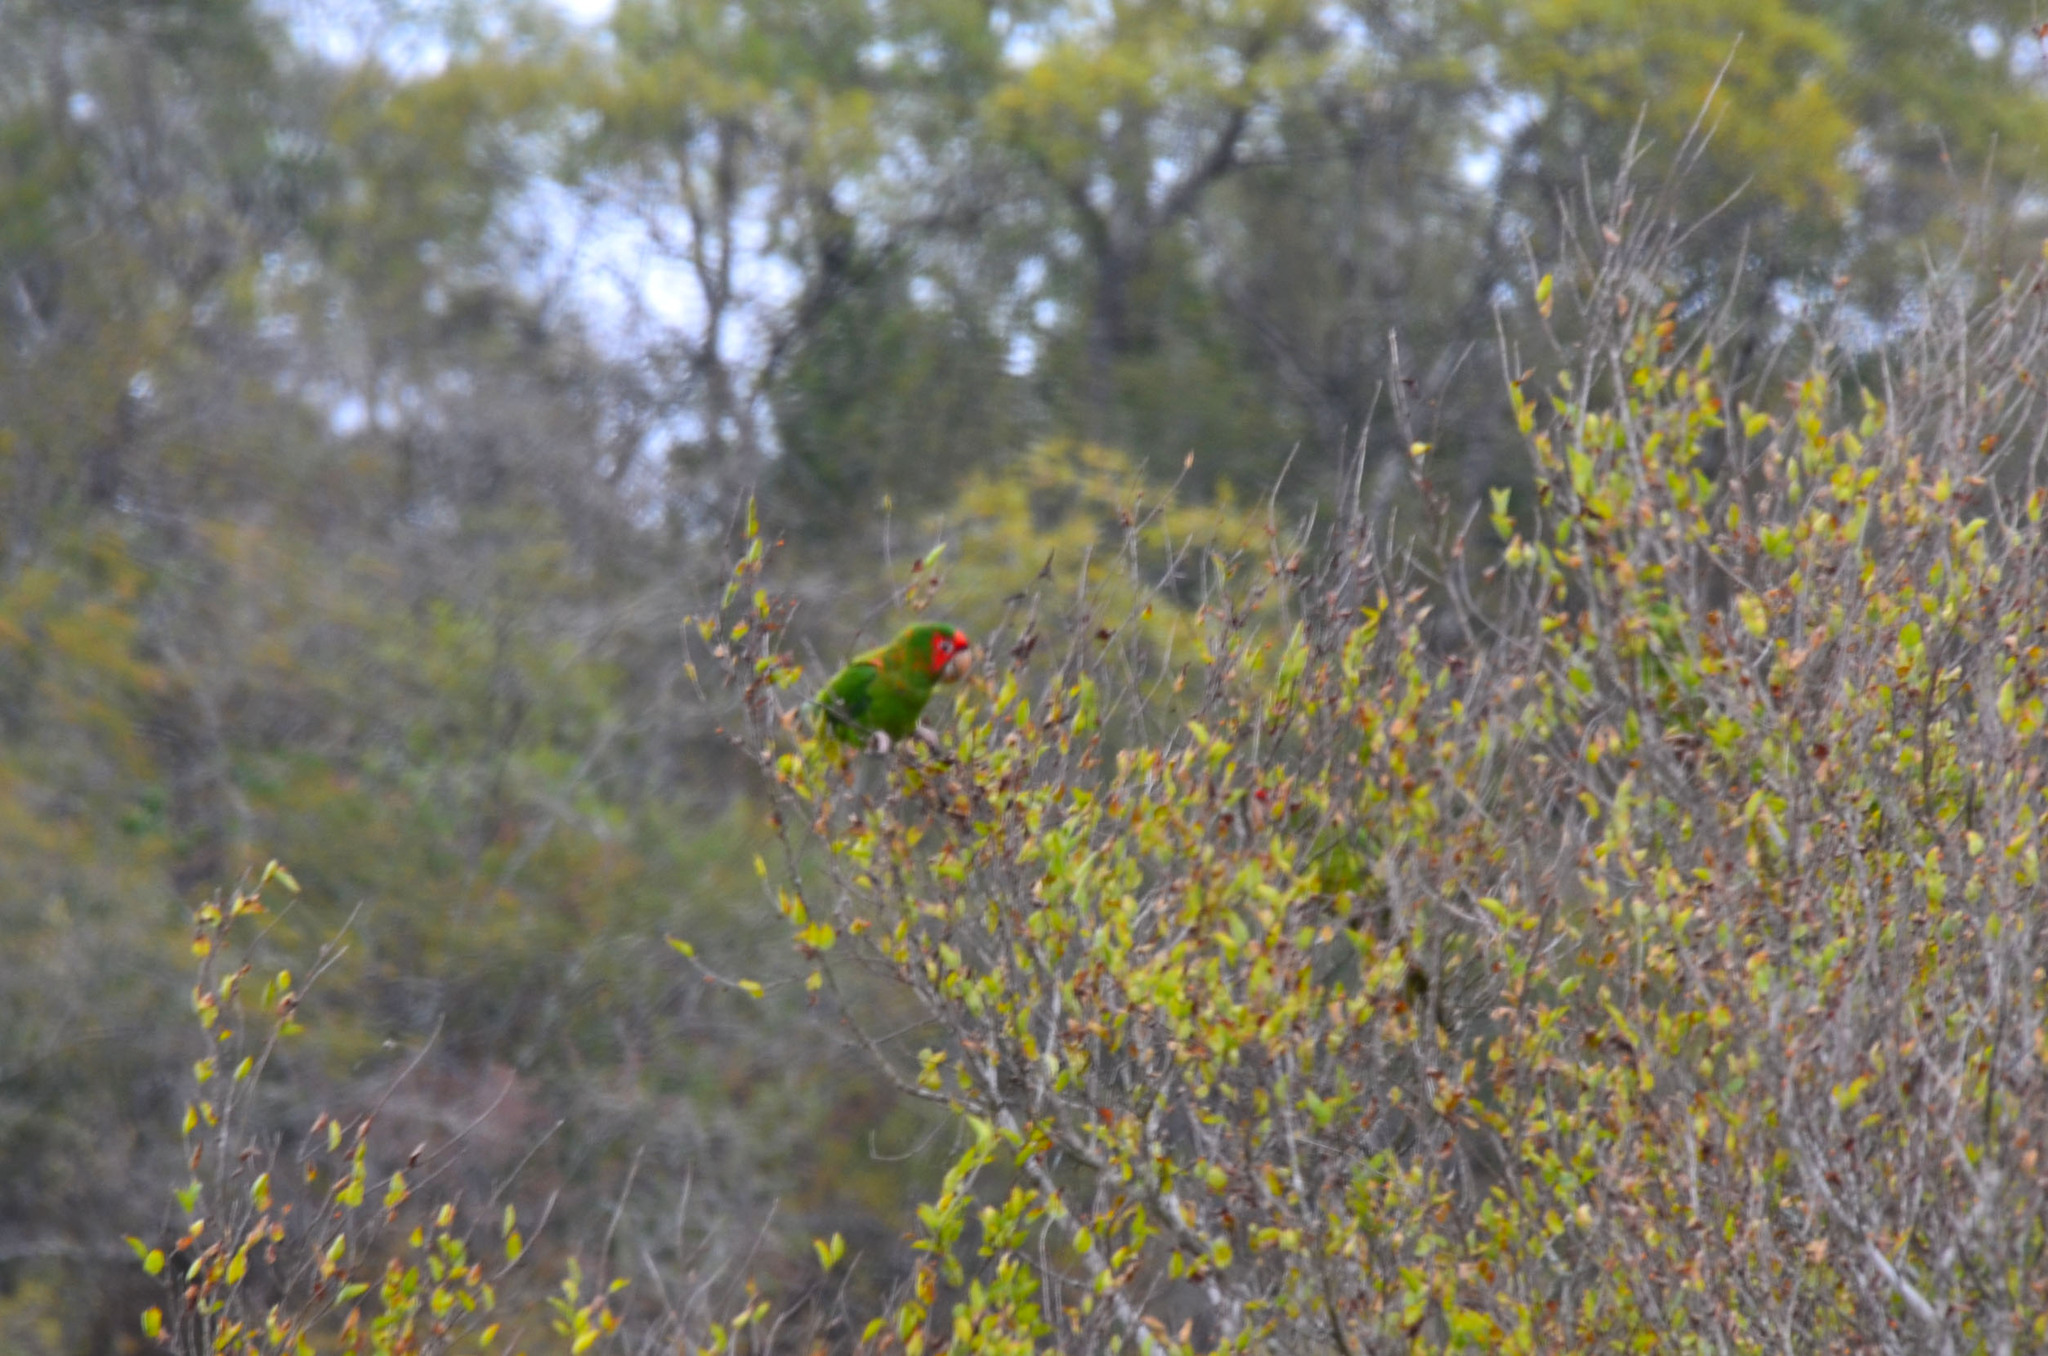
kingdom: Animalia
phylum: Chordata
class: Aves
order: Psittaciformes
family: Psittacidae
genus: Aratinga
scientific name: Aratinga mitrata
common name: Mitred parakeet
